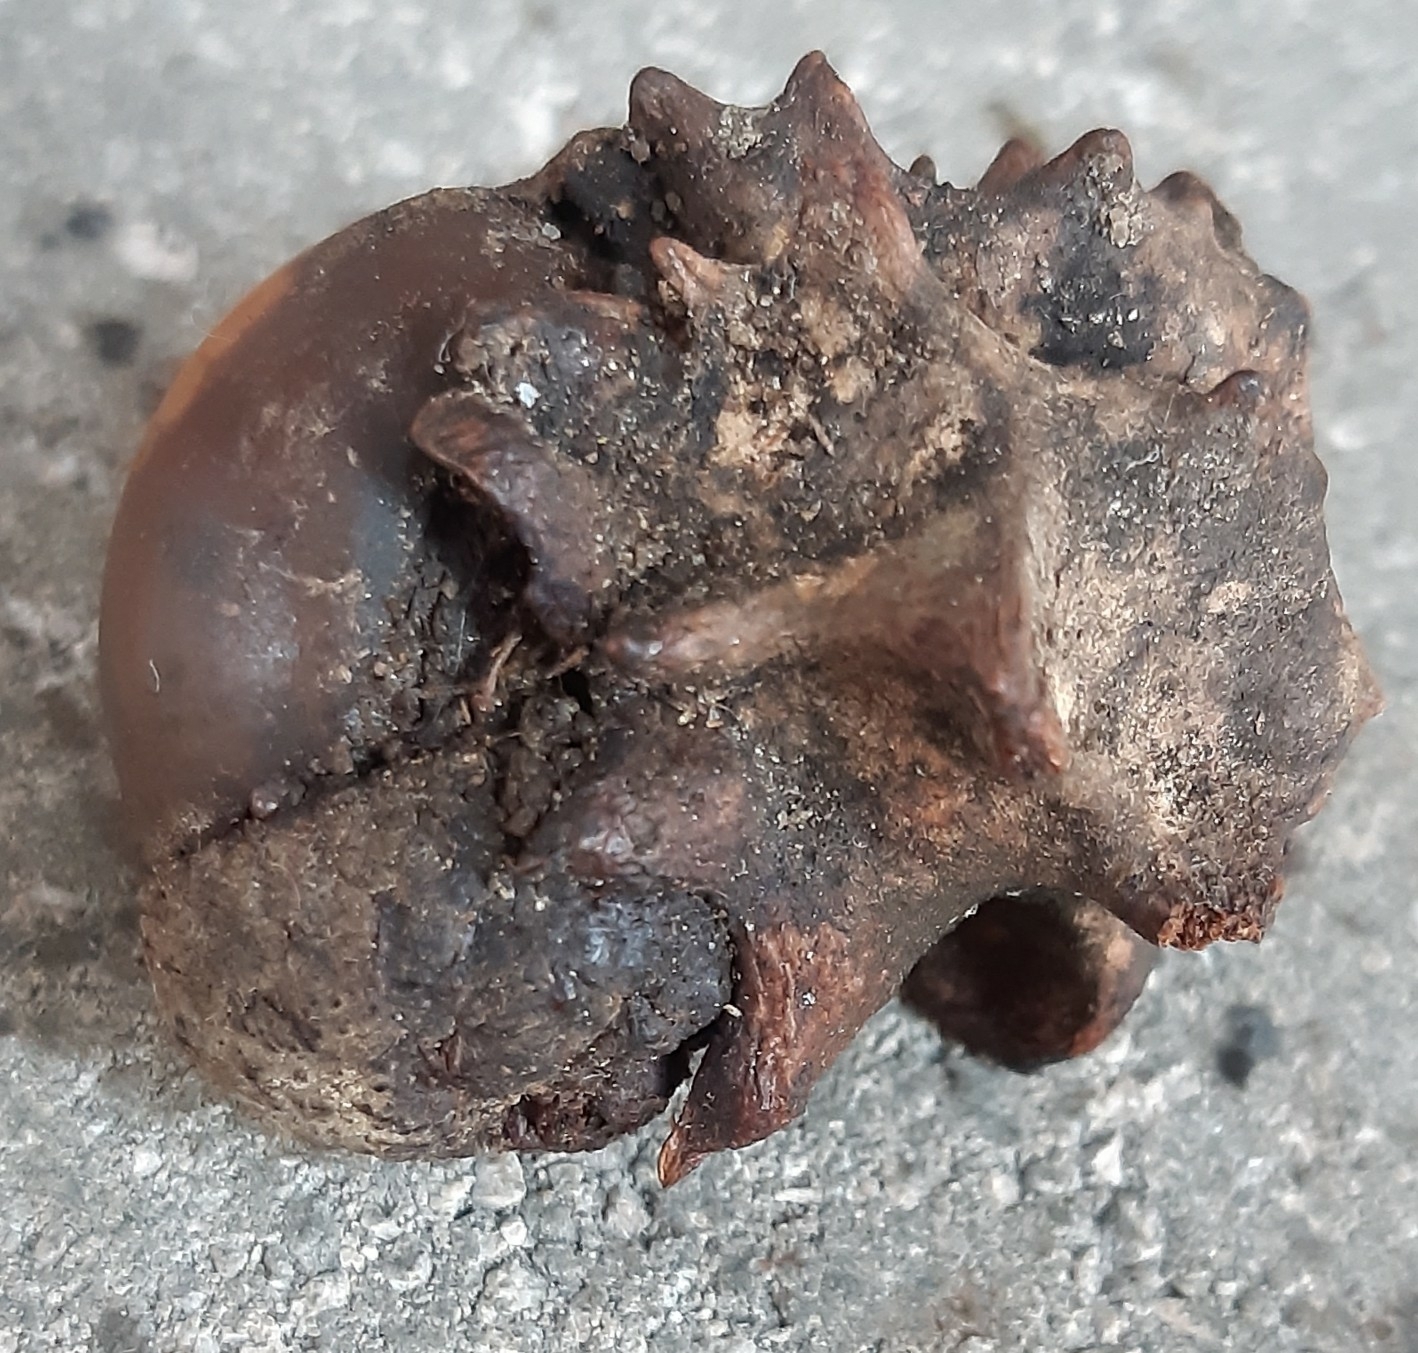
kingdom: Animalia
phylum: Arthropoda
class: Insecta
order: Hymenoptera
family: Cynipidae
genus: Andricus
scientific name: Andricus quercuscalicis
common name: Knopper gall
